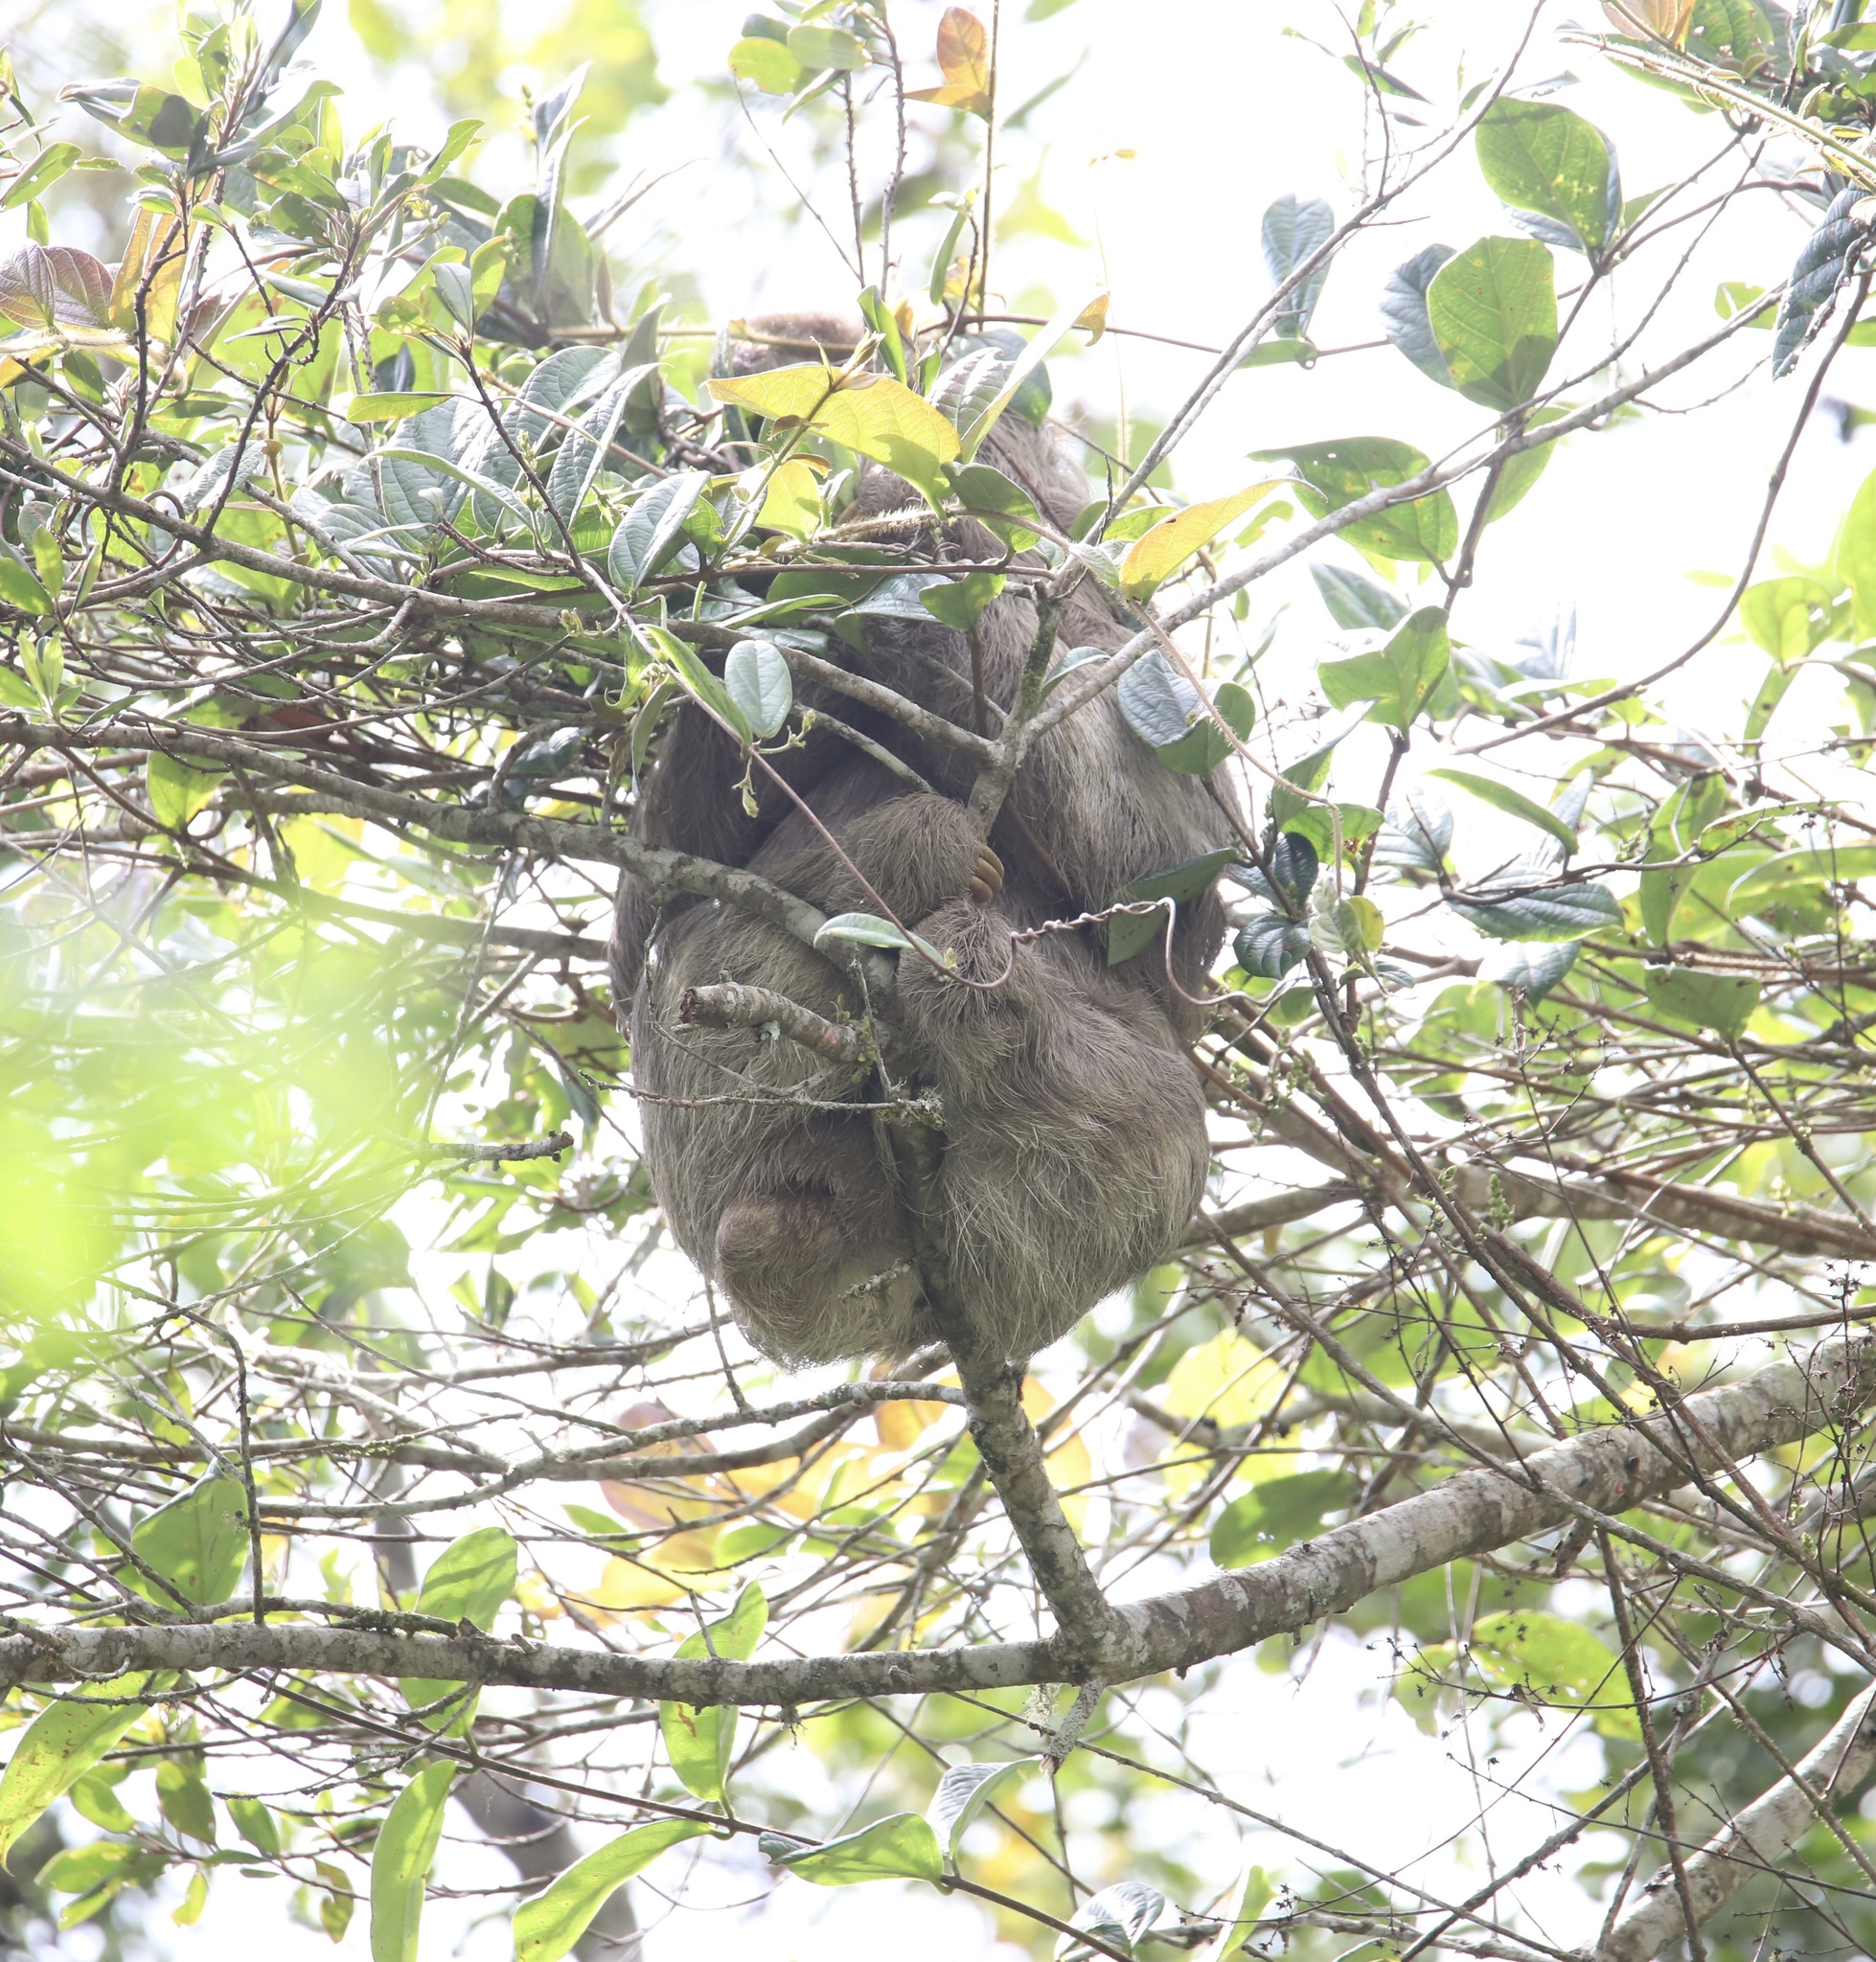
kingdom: Animalia
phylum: Chordata
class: Mammalia
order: Pilosa
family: Bradypodidae
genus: Bradypus
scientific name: Bradypus variegatus
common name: Brown-throated three-toed sloth
